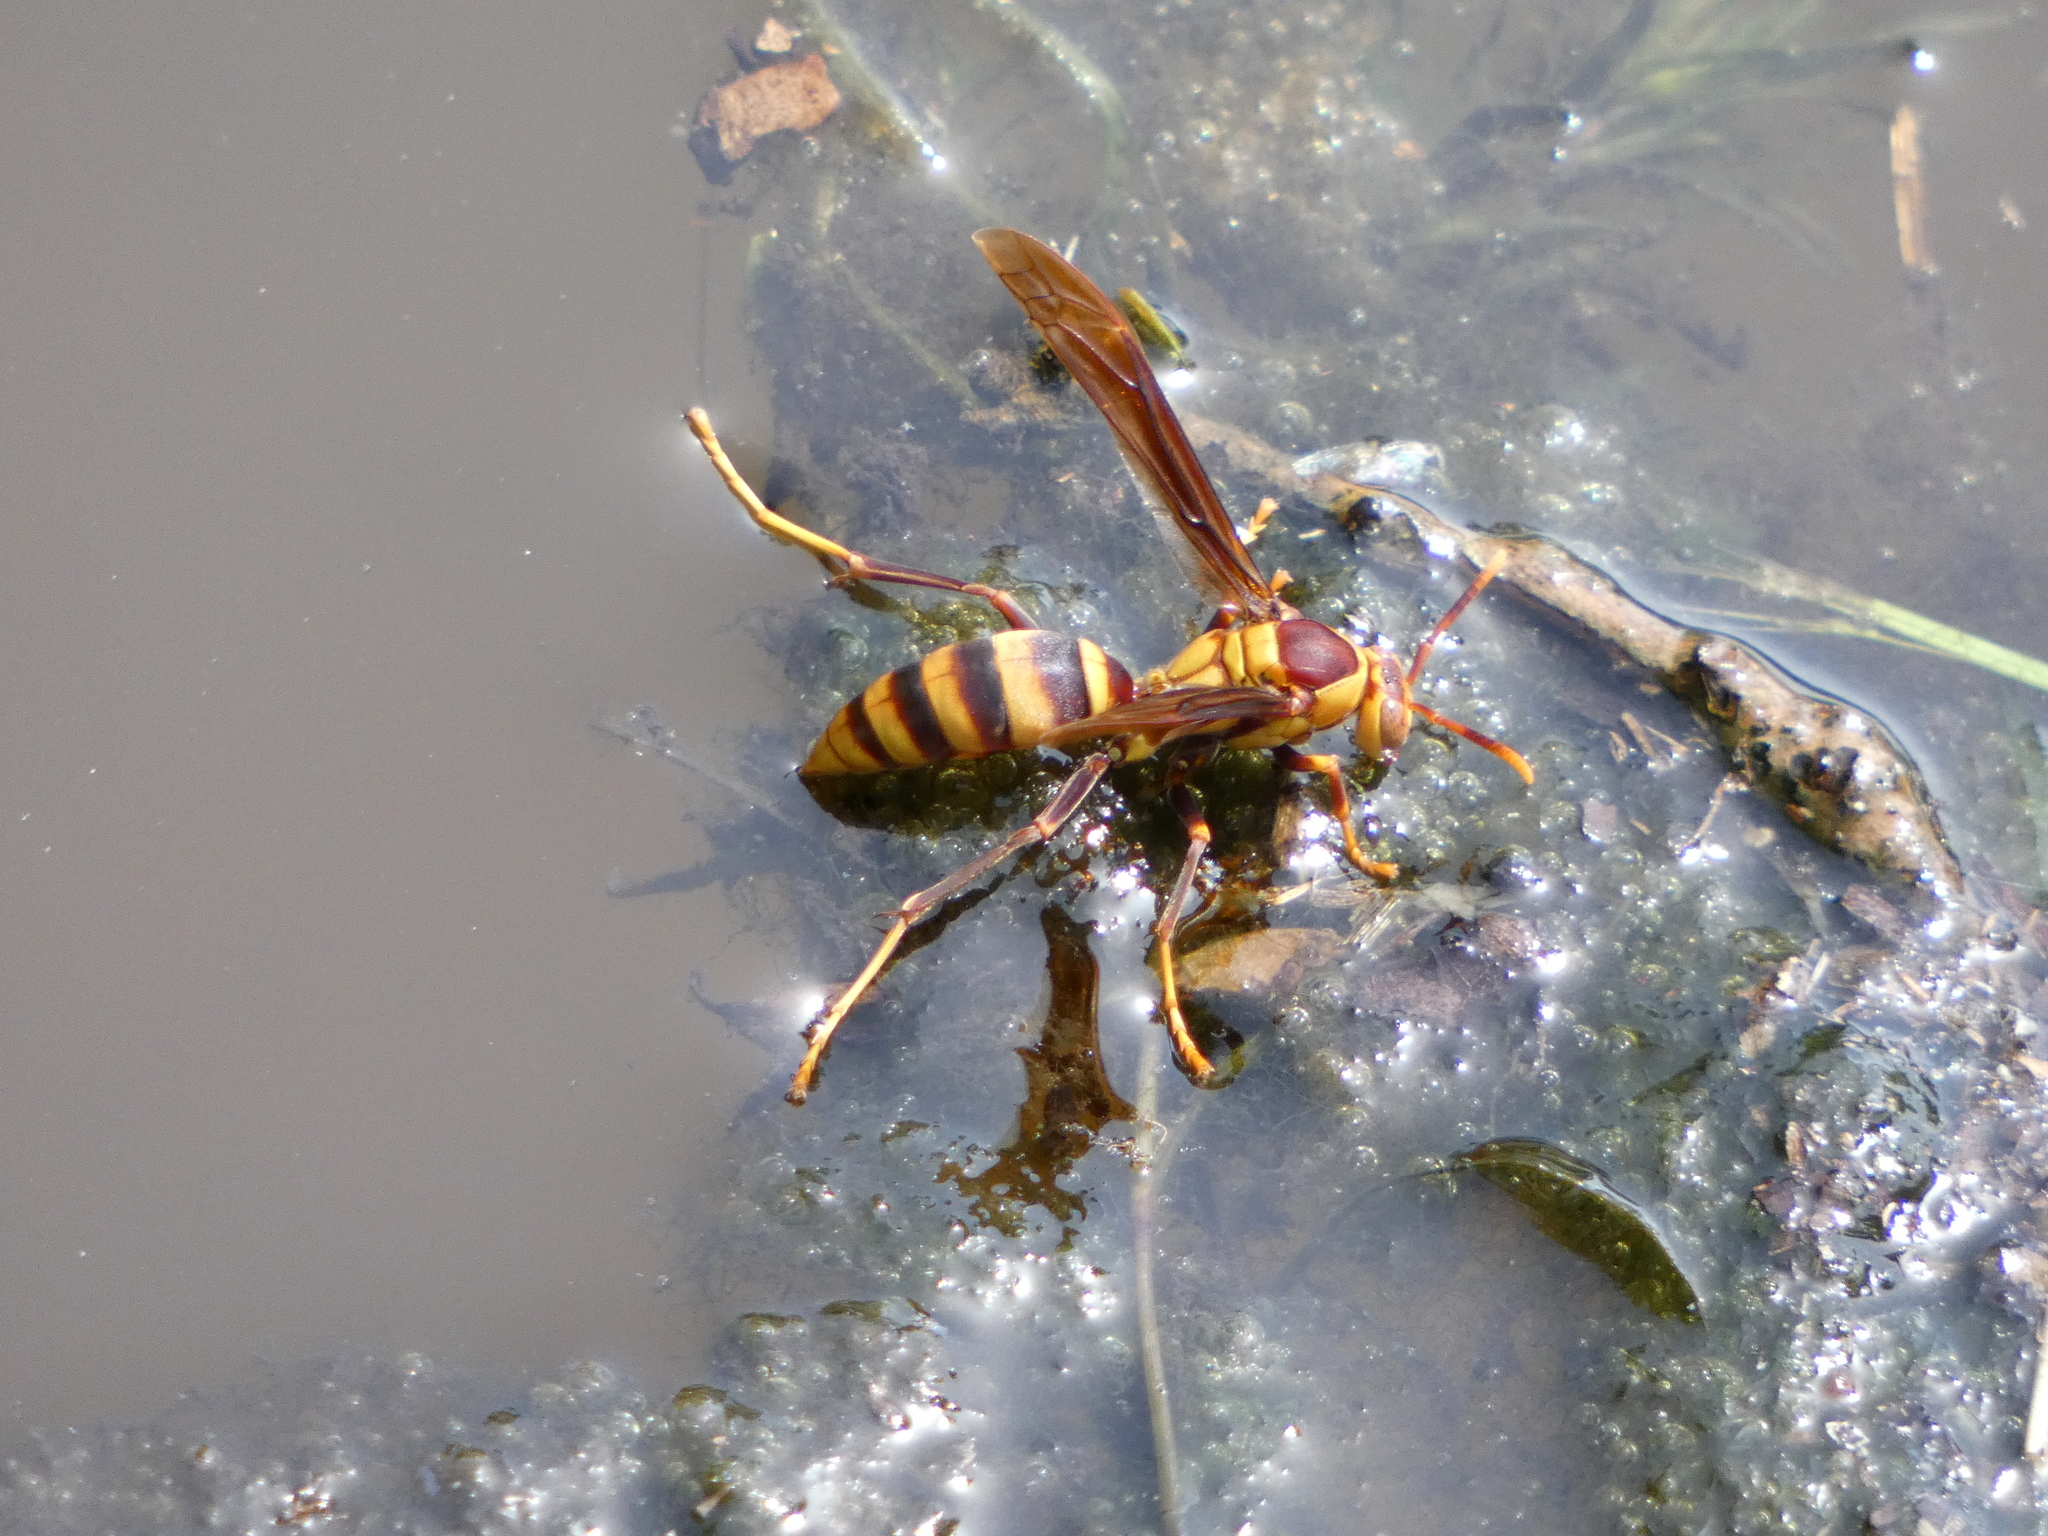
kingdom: Animalia
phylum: Arthropoda
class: Insecta
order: Hymenoptera
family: Eumenidae
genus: Polistes
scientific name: Polistes major
